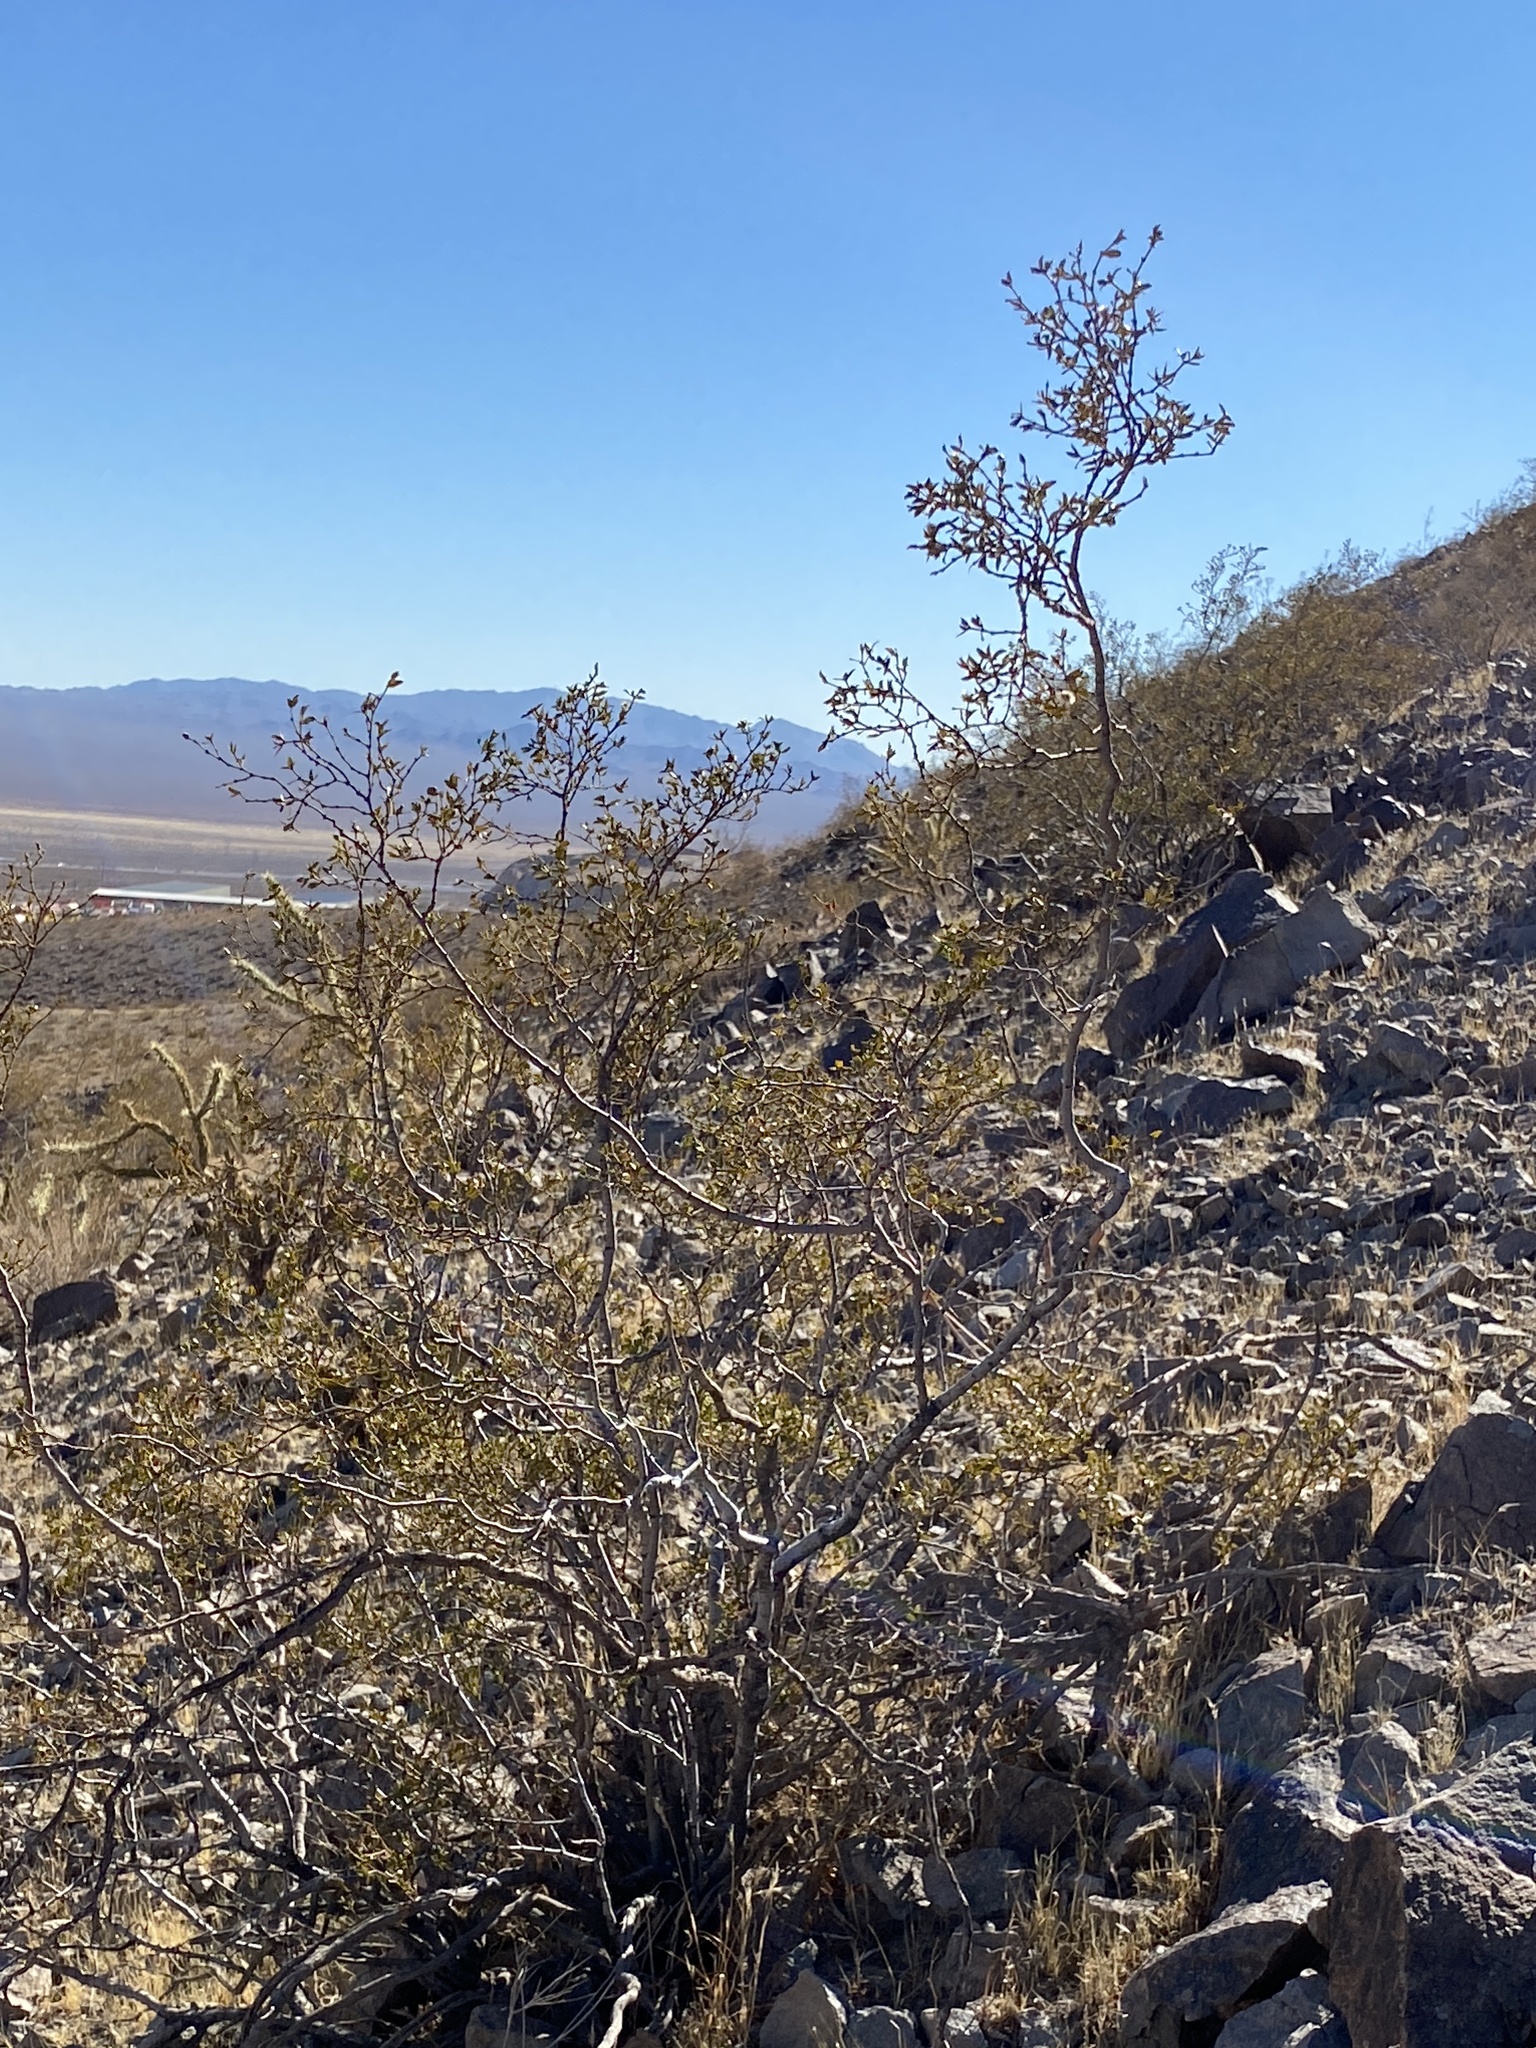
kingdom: Plantae
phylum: Tracheophyta
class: Magnoliopsida
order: Zygophyllales
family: Zygophyllaceae
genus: Larrea
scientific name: Larrea tridentata
